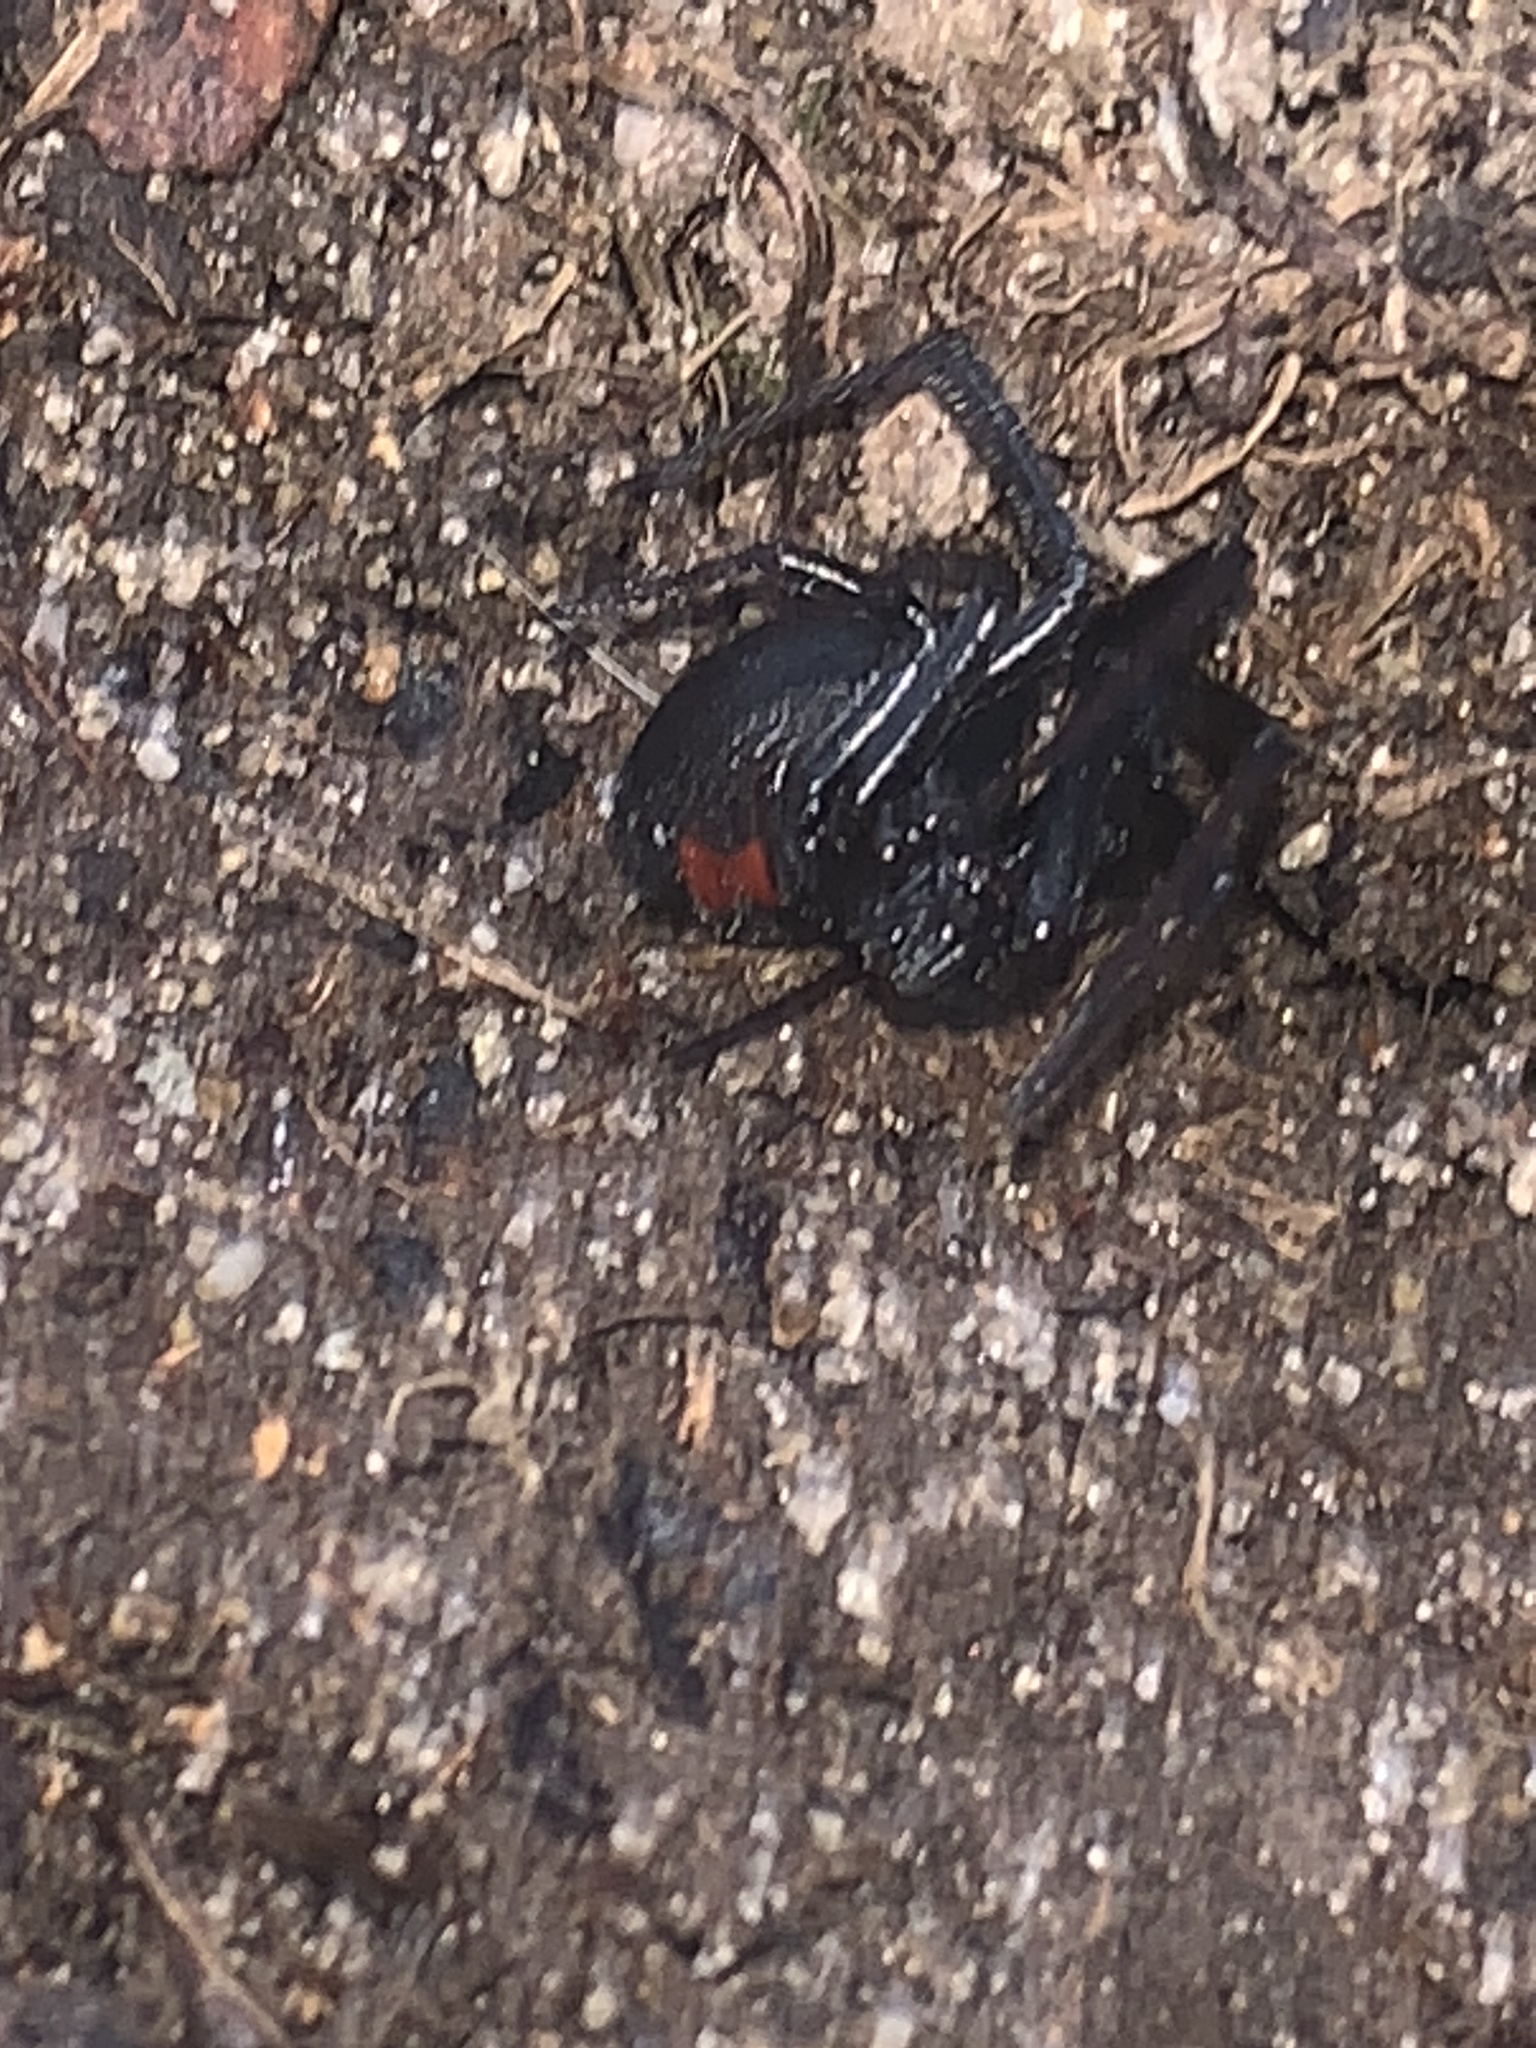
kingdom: Animalia
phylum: Arthropoda
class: Arachnida
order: Araneae
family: Theridiidae
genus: Latrodectus
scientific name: Latrodectus mactans
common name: Cobweb spiders
